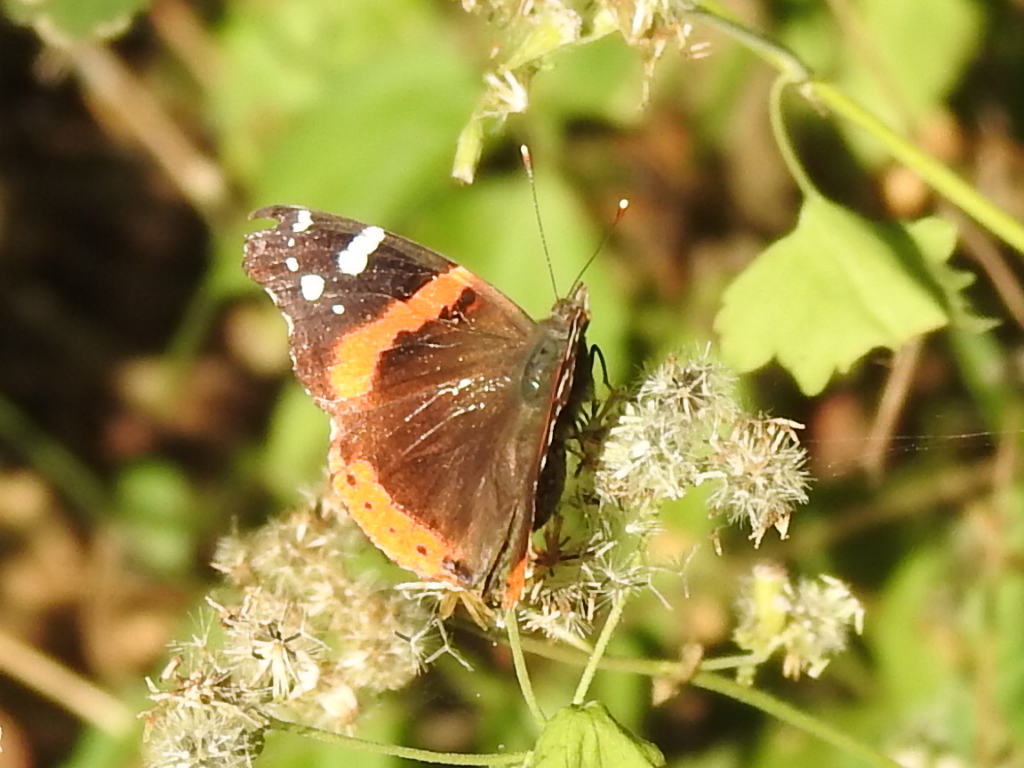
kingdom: Animalia
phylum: Arthropoda
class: Insecta
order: Lepidoptera
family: Nymphalidae
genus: Vanessa
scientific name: Vanessa atalanta
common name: Red admiral
